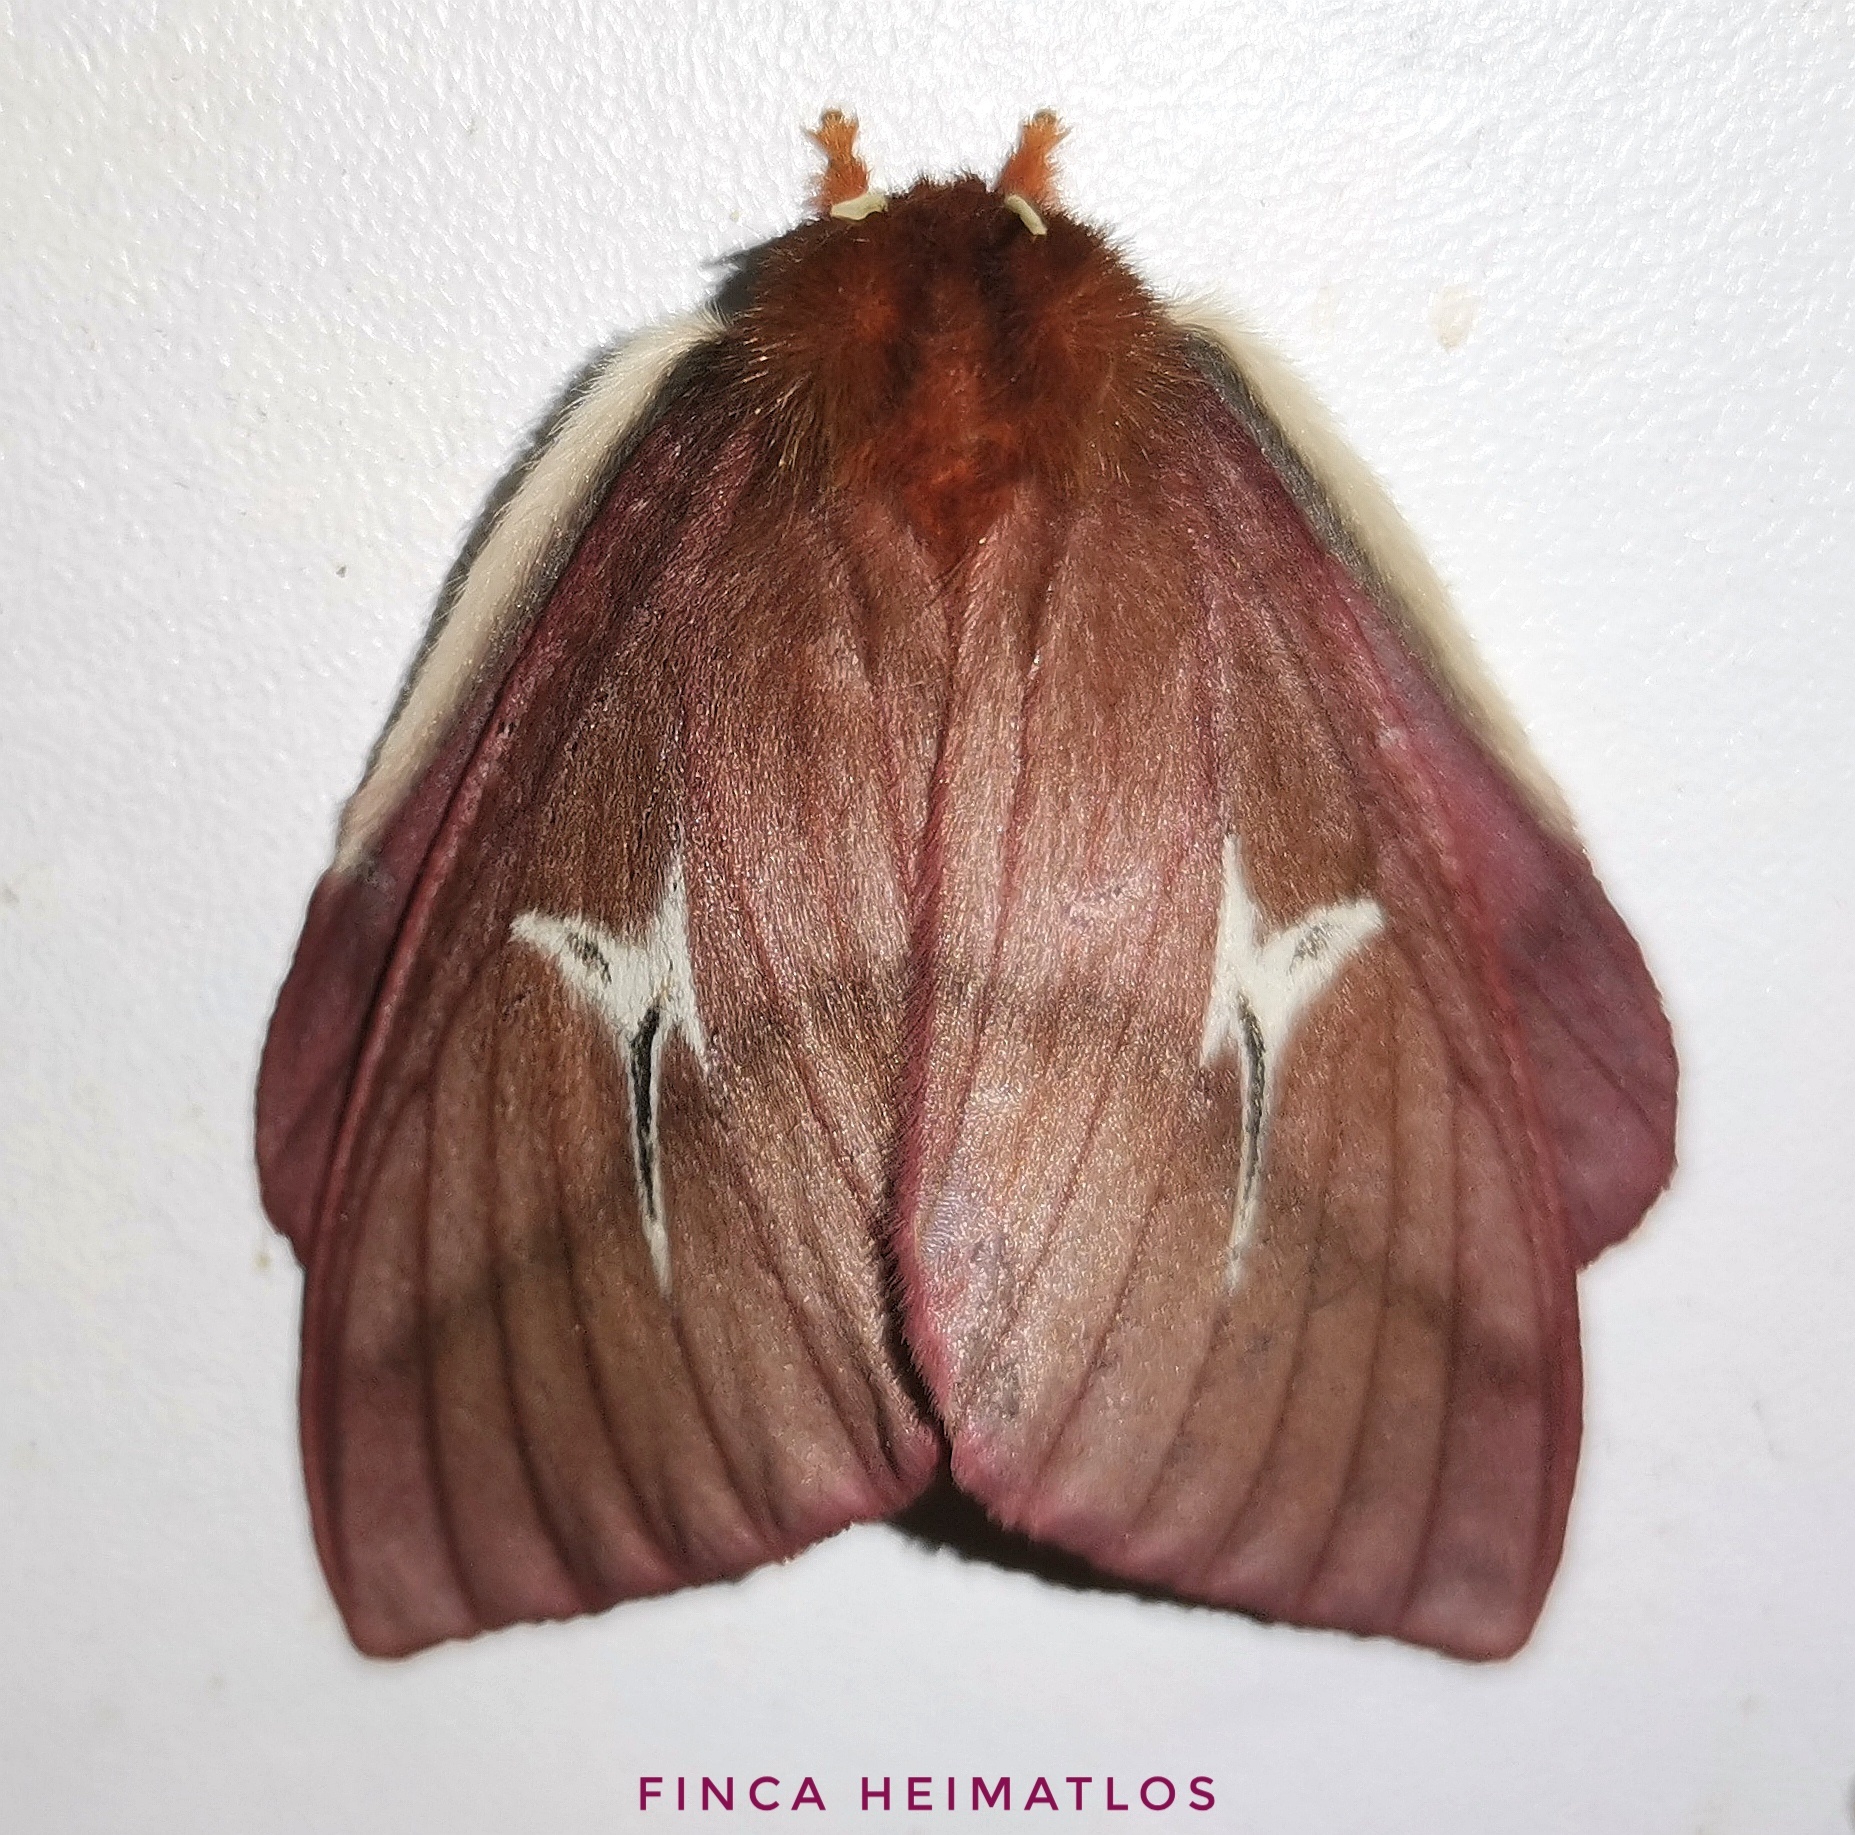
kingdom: Animalia
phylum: Arthropoda
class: Insecta
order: Lepidoptera
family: Saturniidae
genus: Cerodirphia
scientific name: Cerodirphia speciosa
